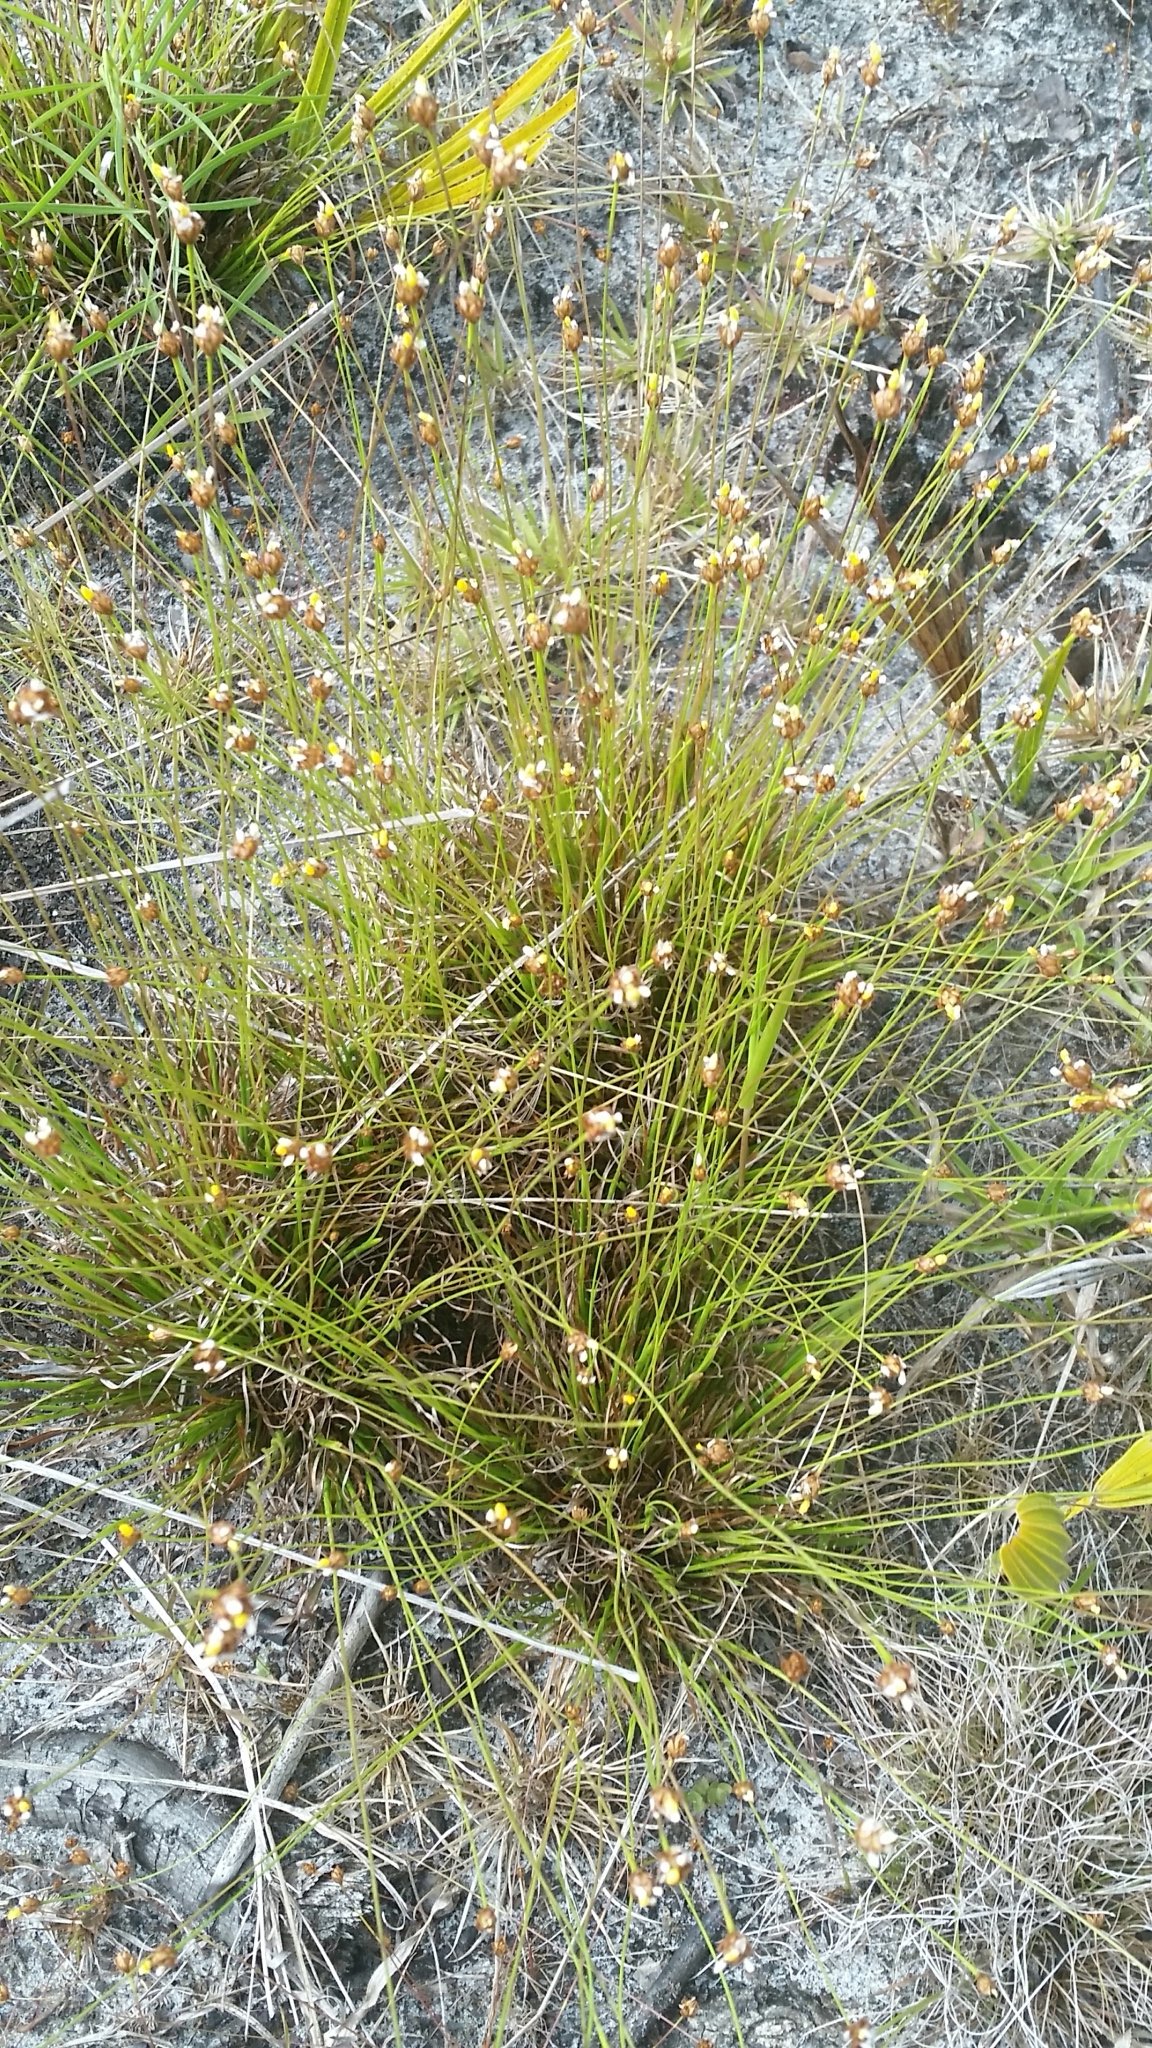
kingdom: Plantae
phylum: Tracheophyta
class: Liliopsida
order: Poales
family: Xyridaceae
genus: Xyris
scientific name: Xyris brevifolia
